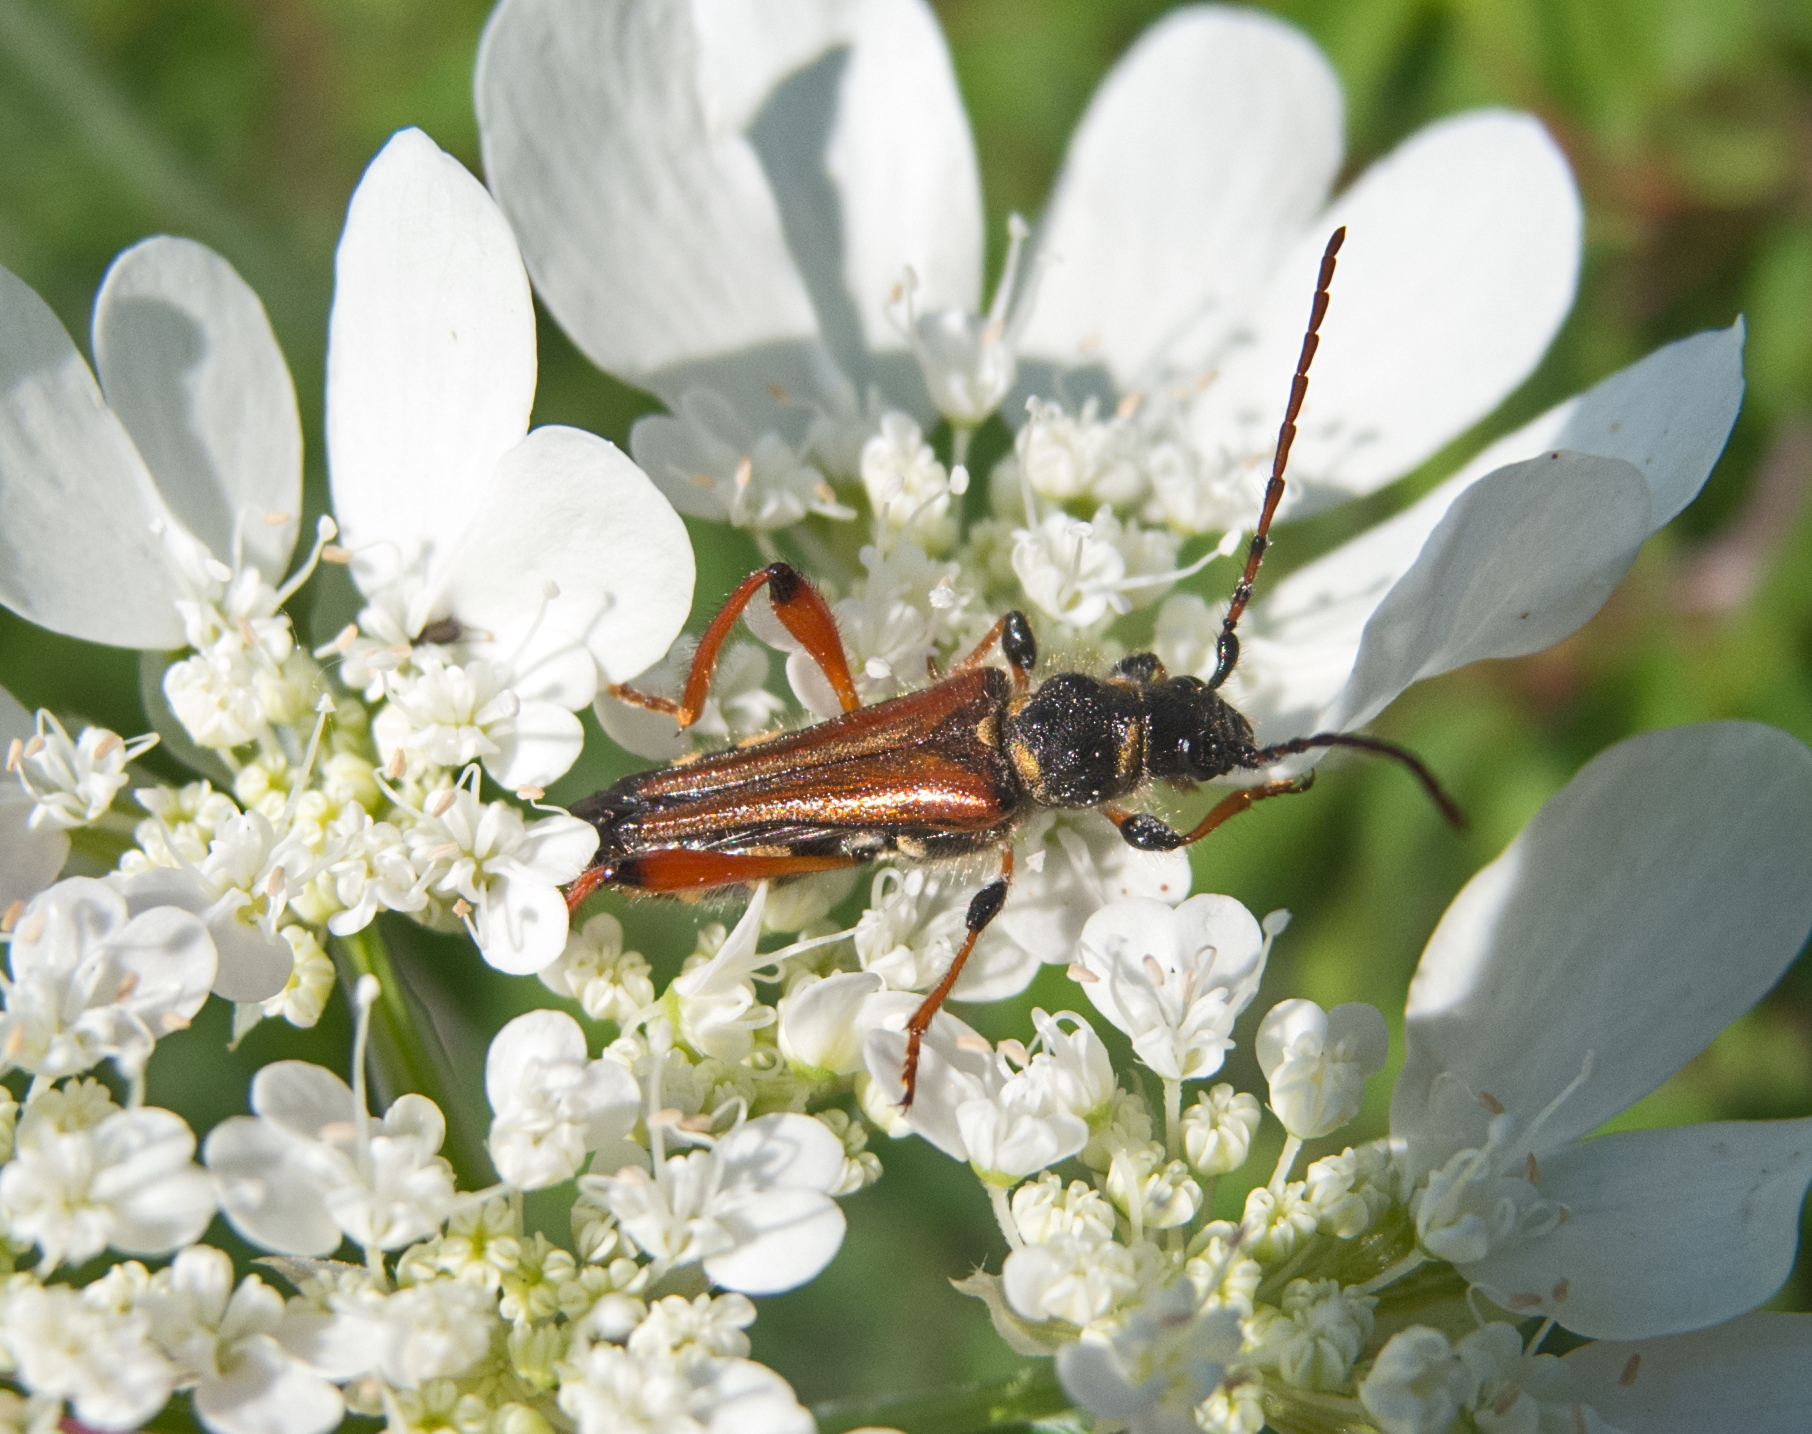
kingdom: Animalia
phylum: Arthropoda
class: Insecta
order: Coleoptera
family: Cerambycidae
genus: Stenopterus
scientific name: Stenopterus rufus
